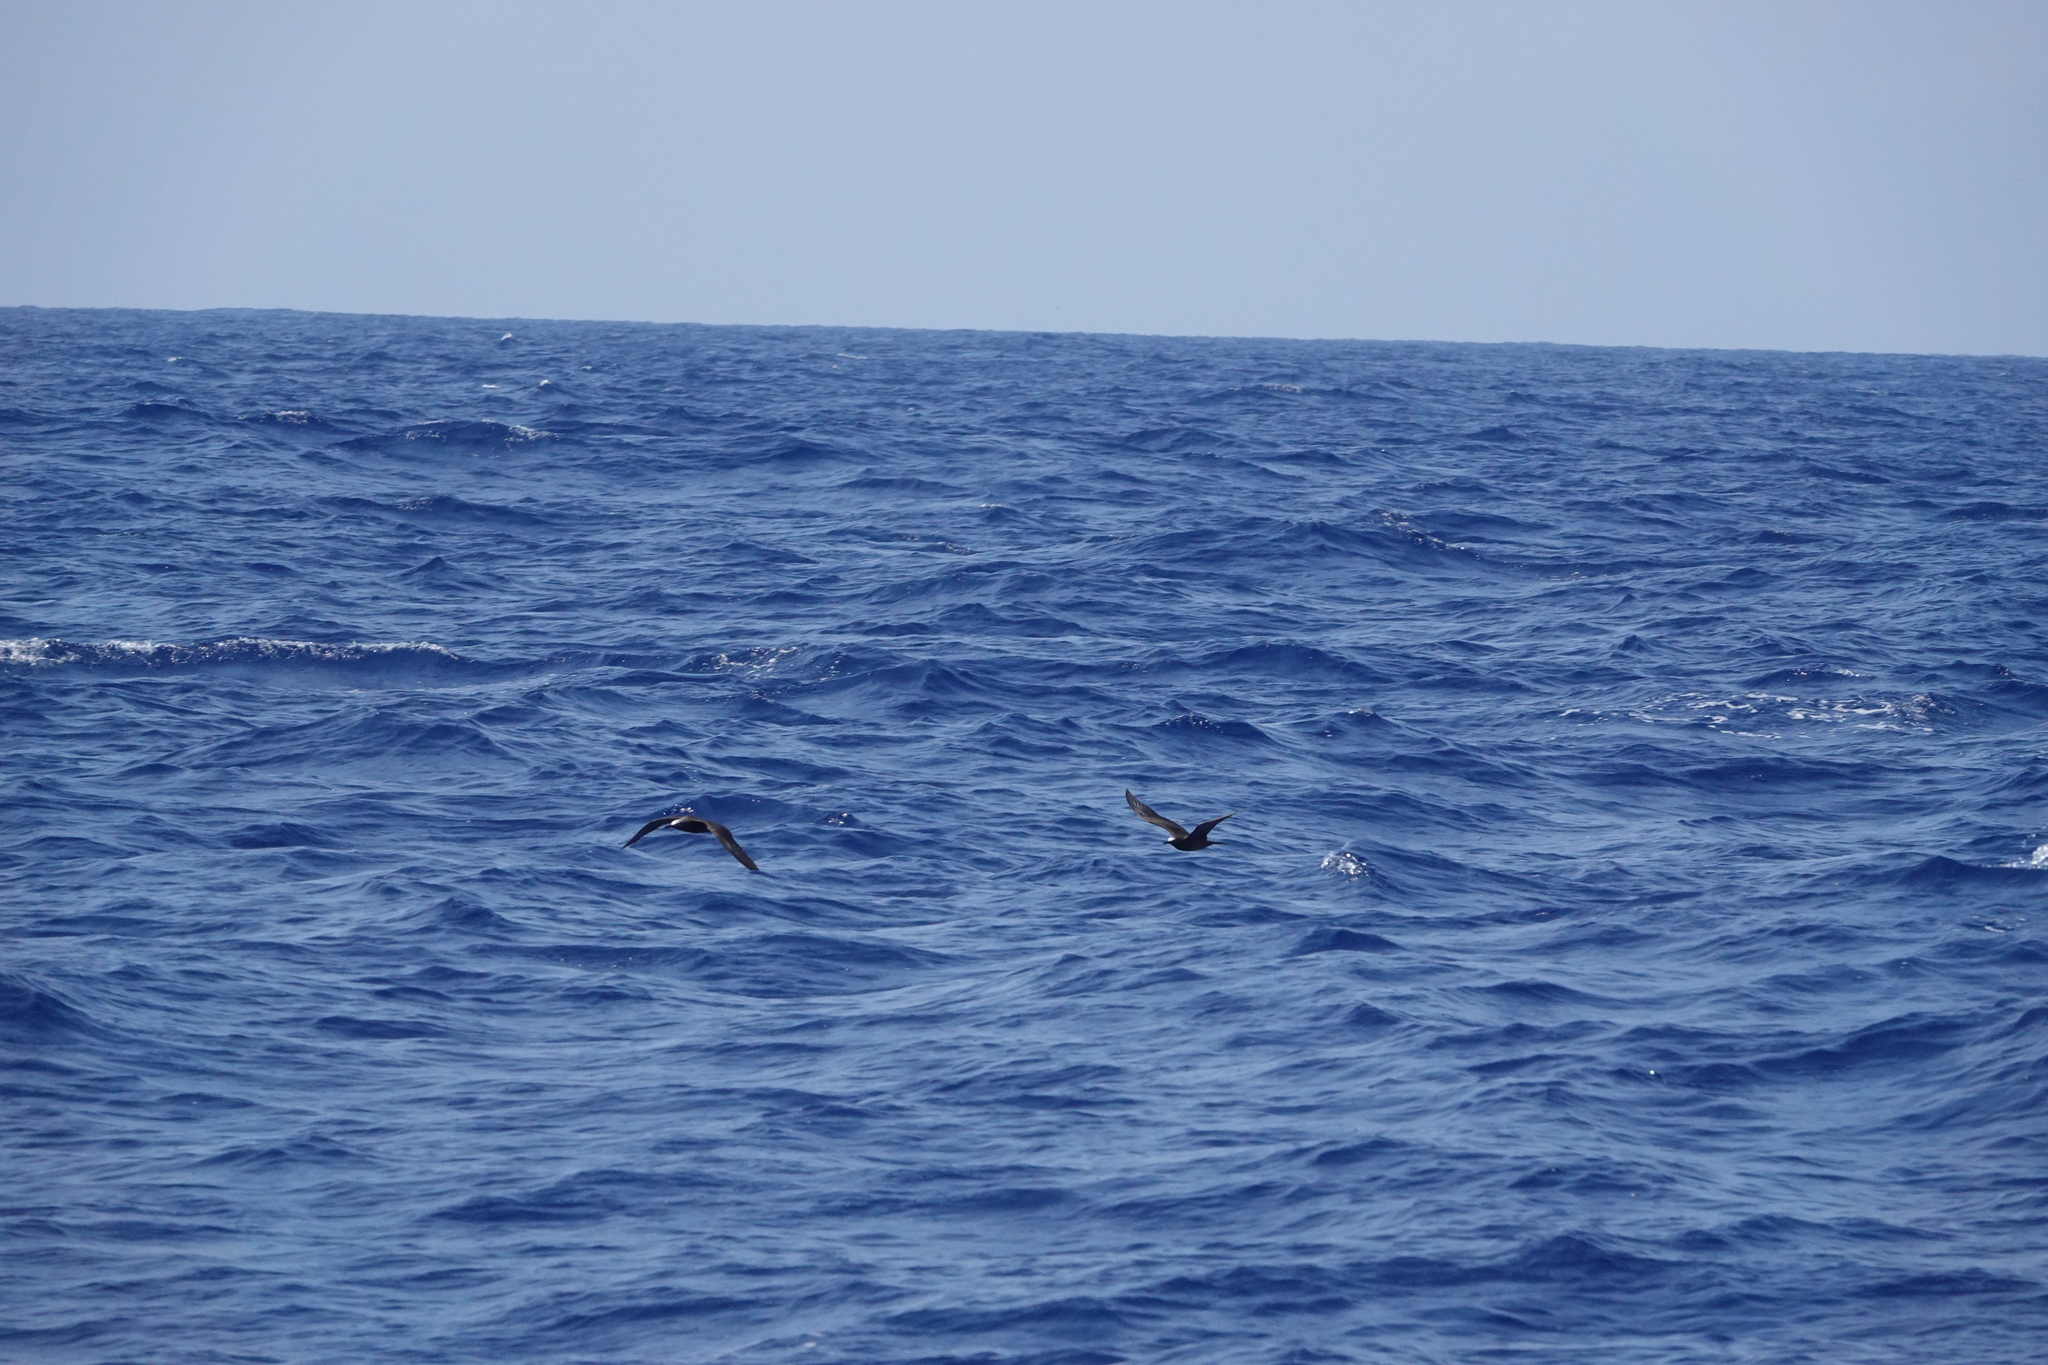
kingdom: Animalia
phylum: Chordata
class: Aves
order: Charadriiformes
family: Laridae
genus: Anous
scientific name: Anous stolidus
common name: Brown noddy
